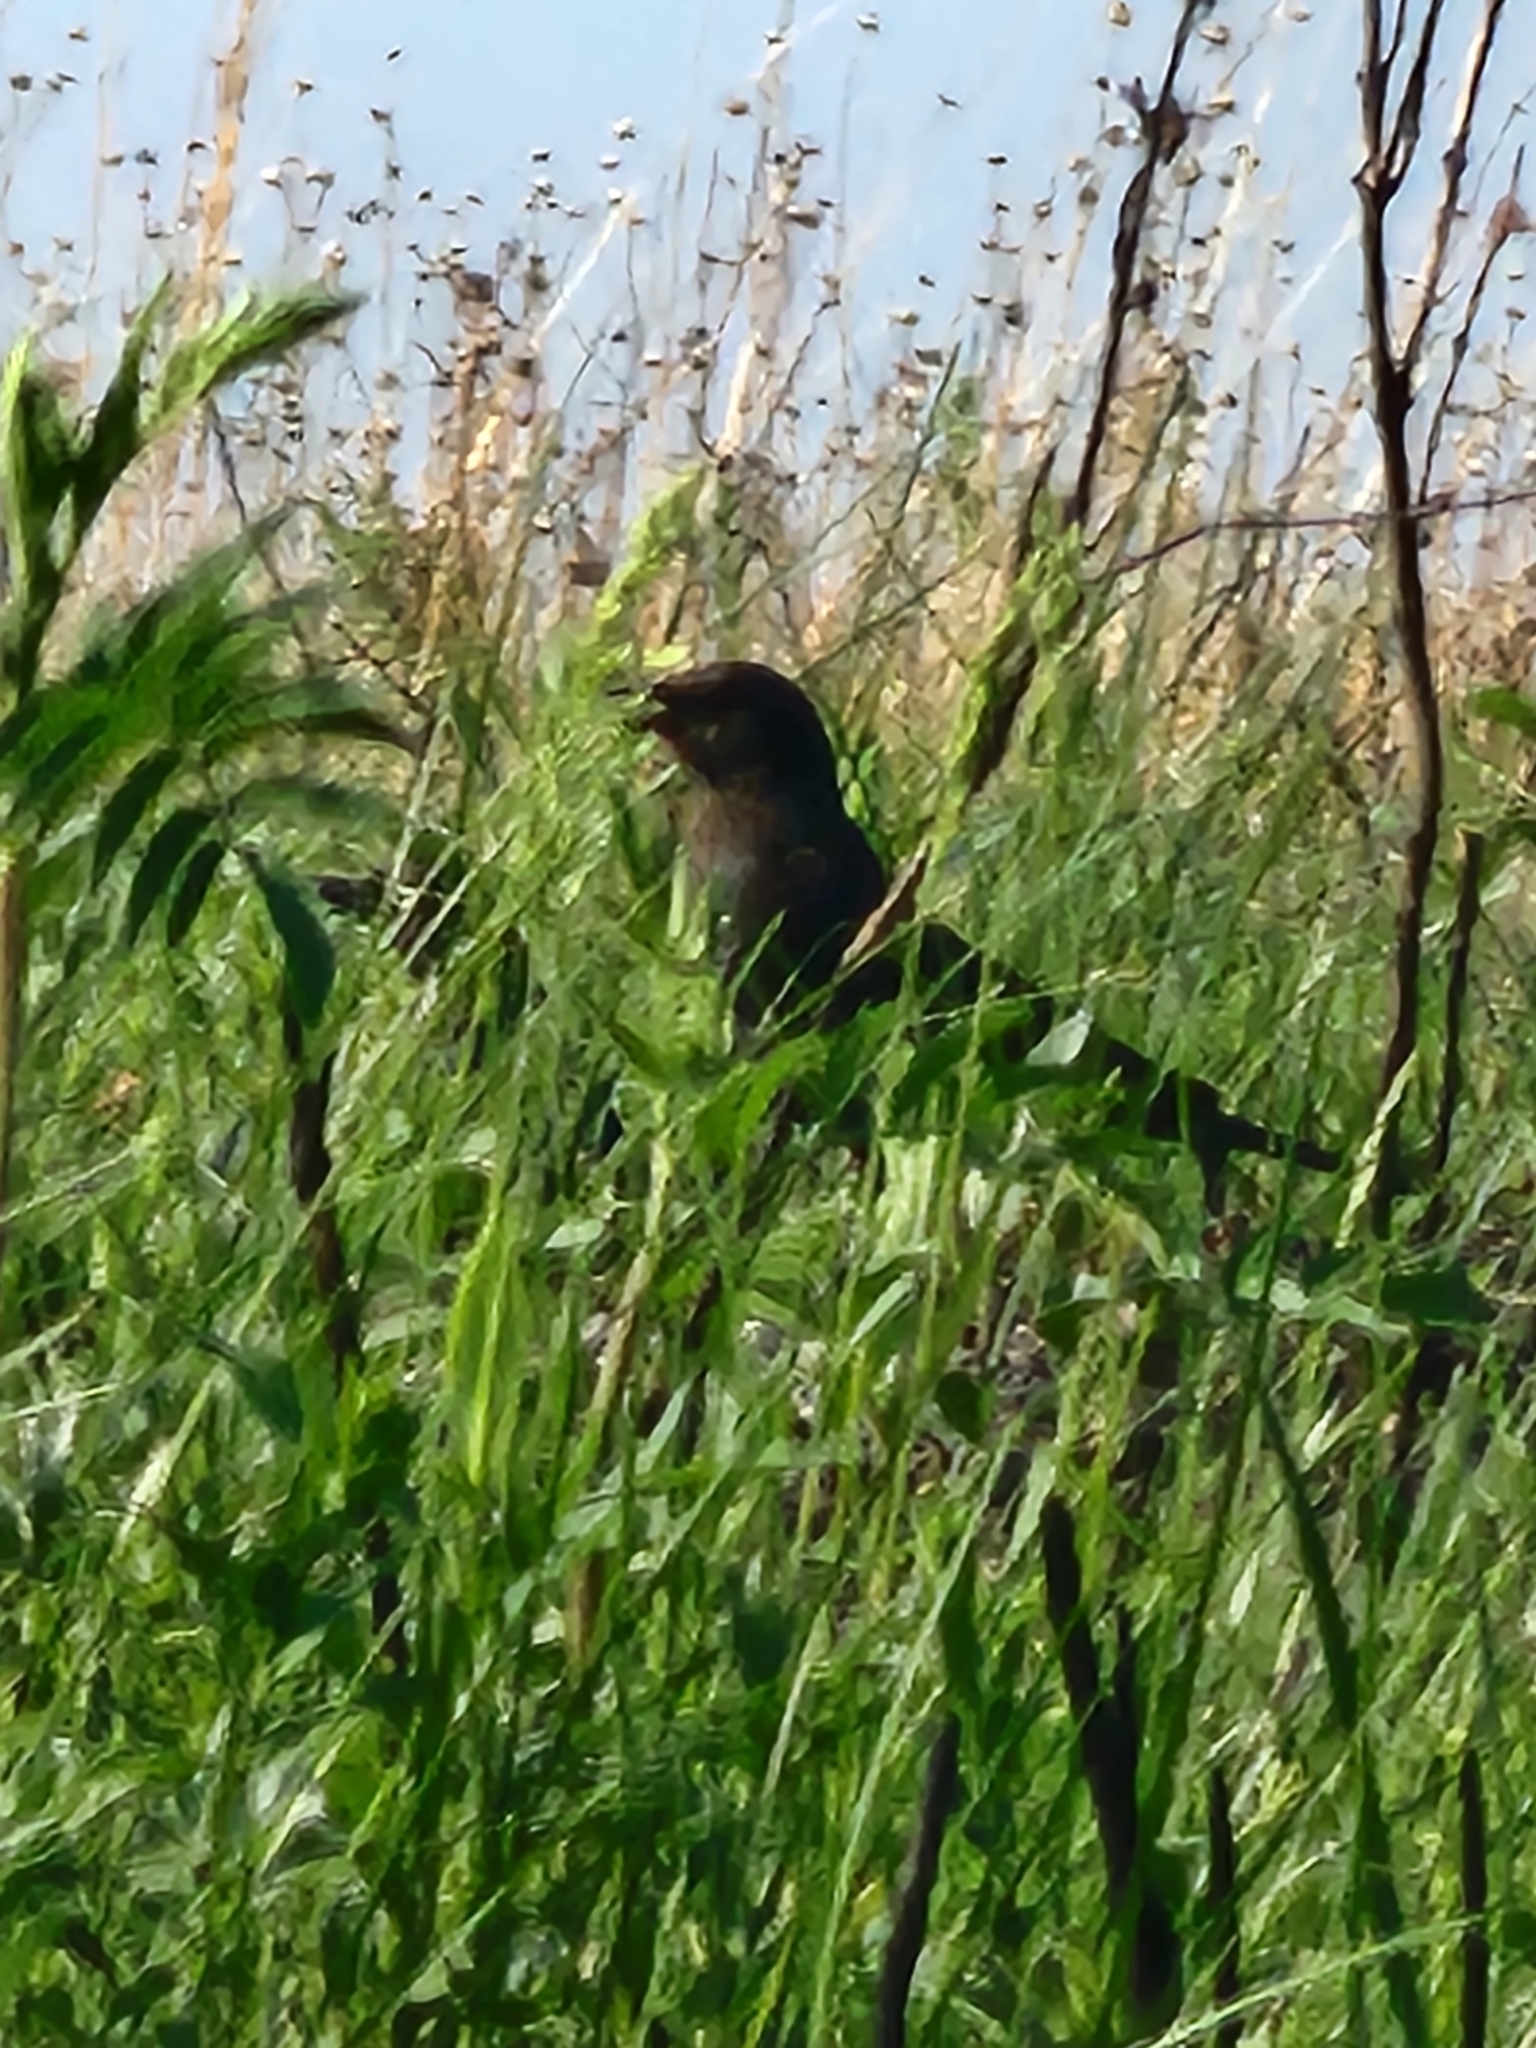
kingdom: Animalia
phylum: Chordata
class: Aves
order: Passeriformes
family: Icteridae
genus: Euphagus
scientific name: Euphagus cyanocephalus
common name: Brewer's blackbird
